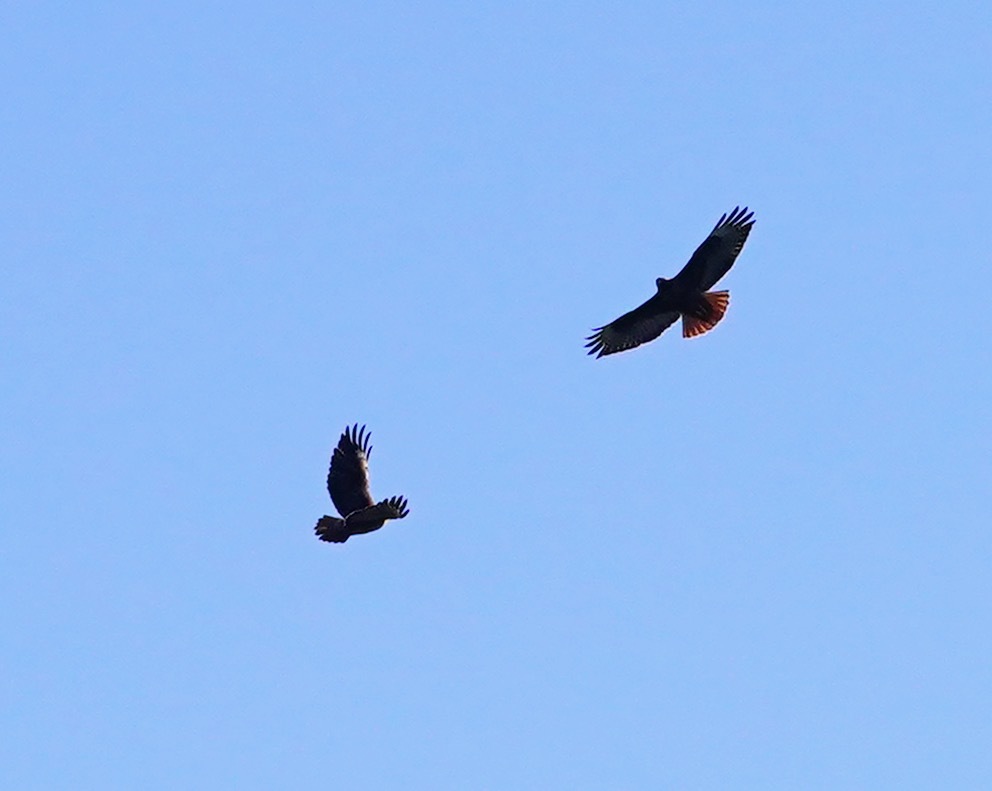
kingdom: Animalia
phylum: Chordata
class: Aves
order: Accipitriformes
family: Accipitridae
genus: Buteo
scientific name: Buteo jamaicensis
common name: Red-tailed hawk
